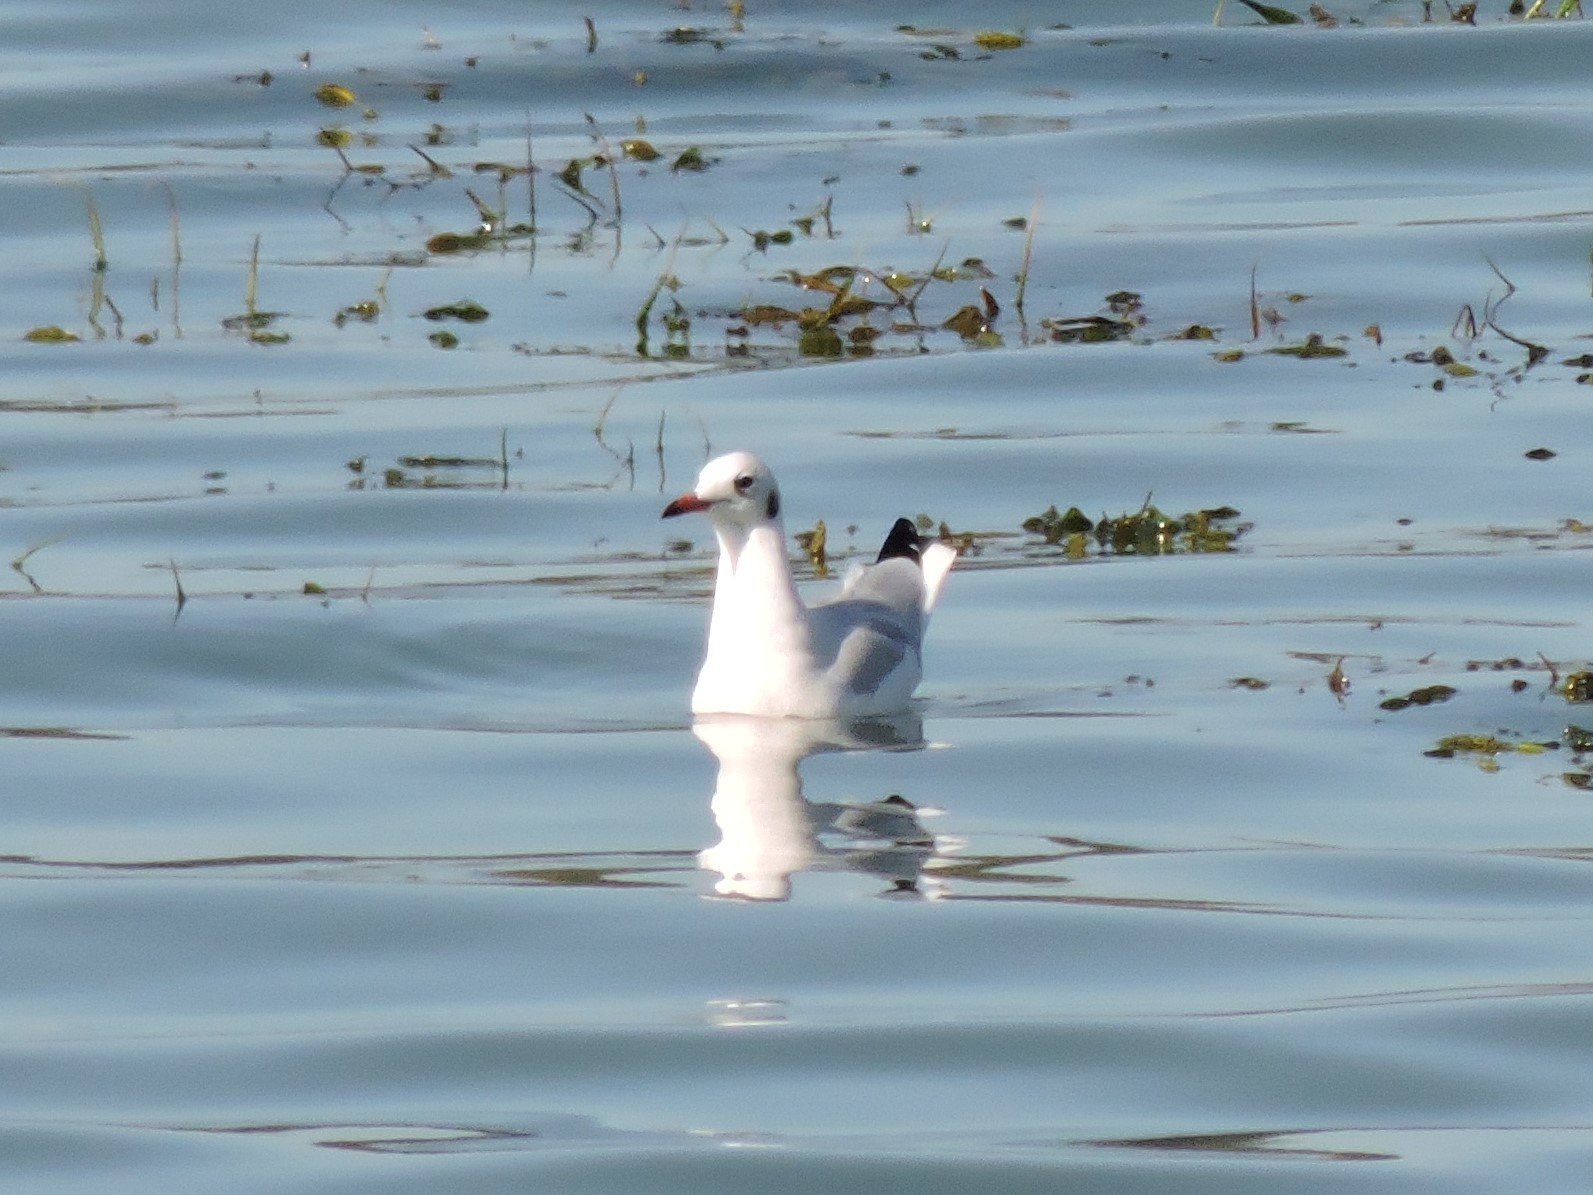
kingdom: Animalia
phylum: Chordata
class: Aves
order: Charadriiformes
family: Laridae
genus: Chroicocephalus
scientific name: Chroicocephalus ridibundus
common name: Black-headed gull
